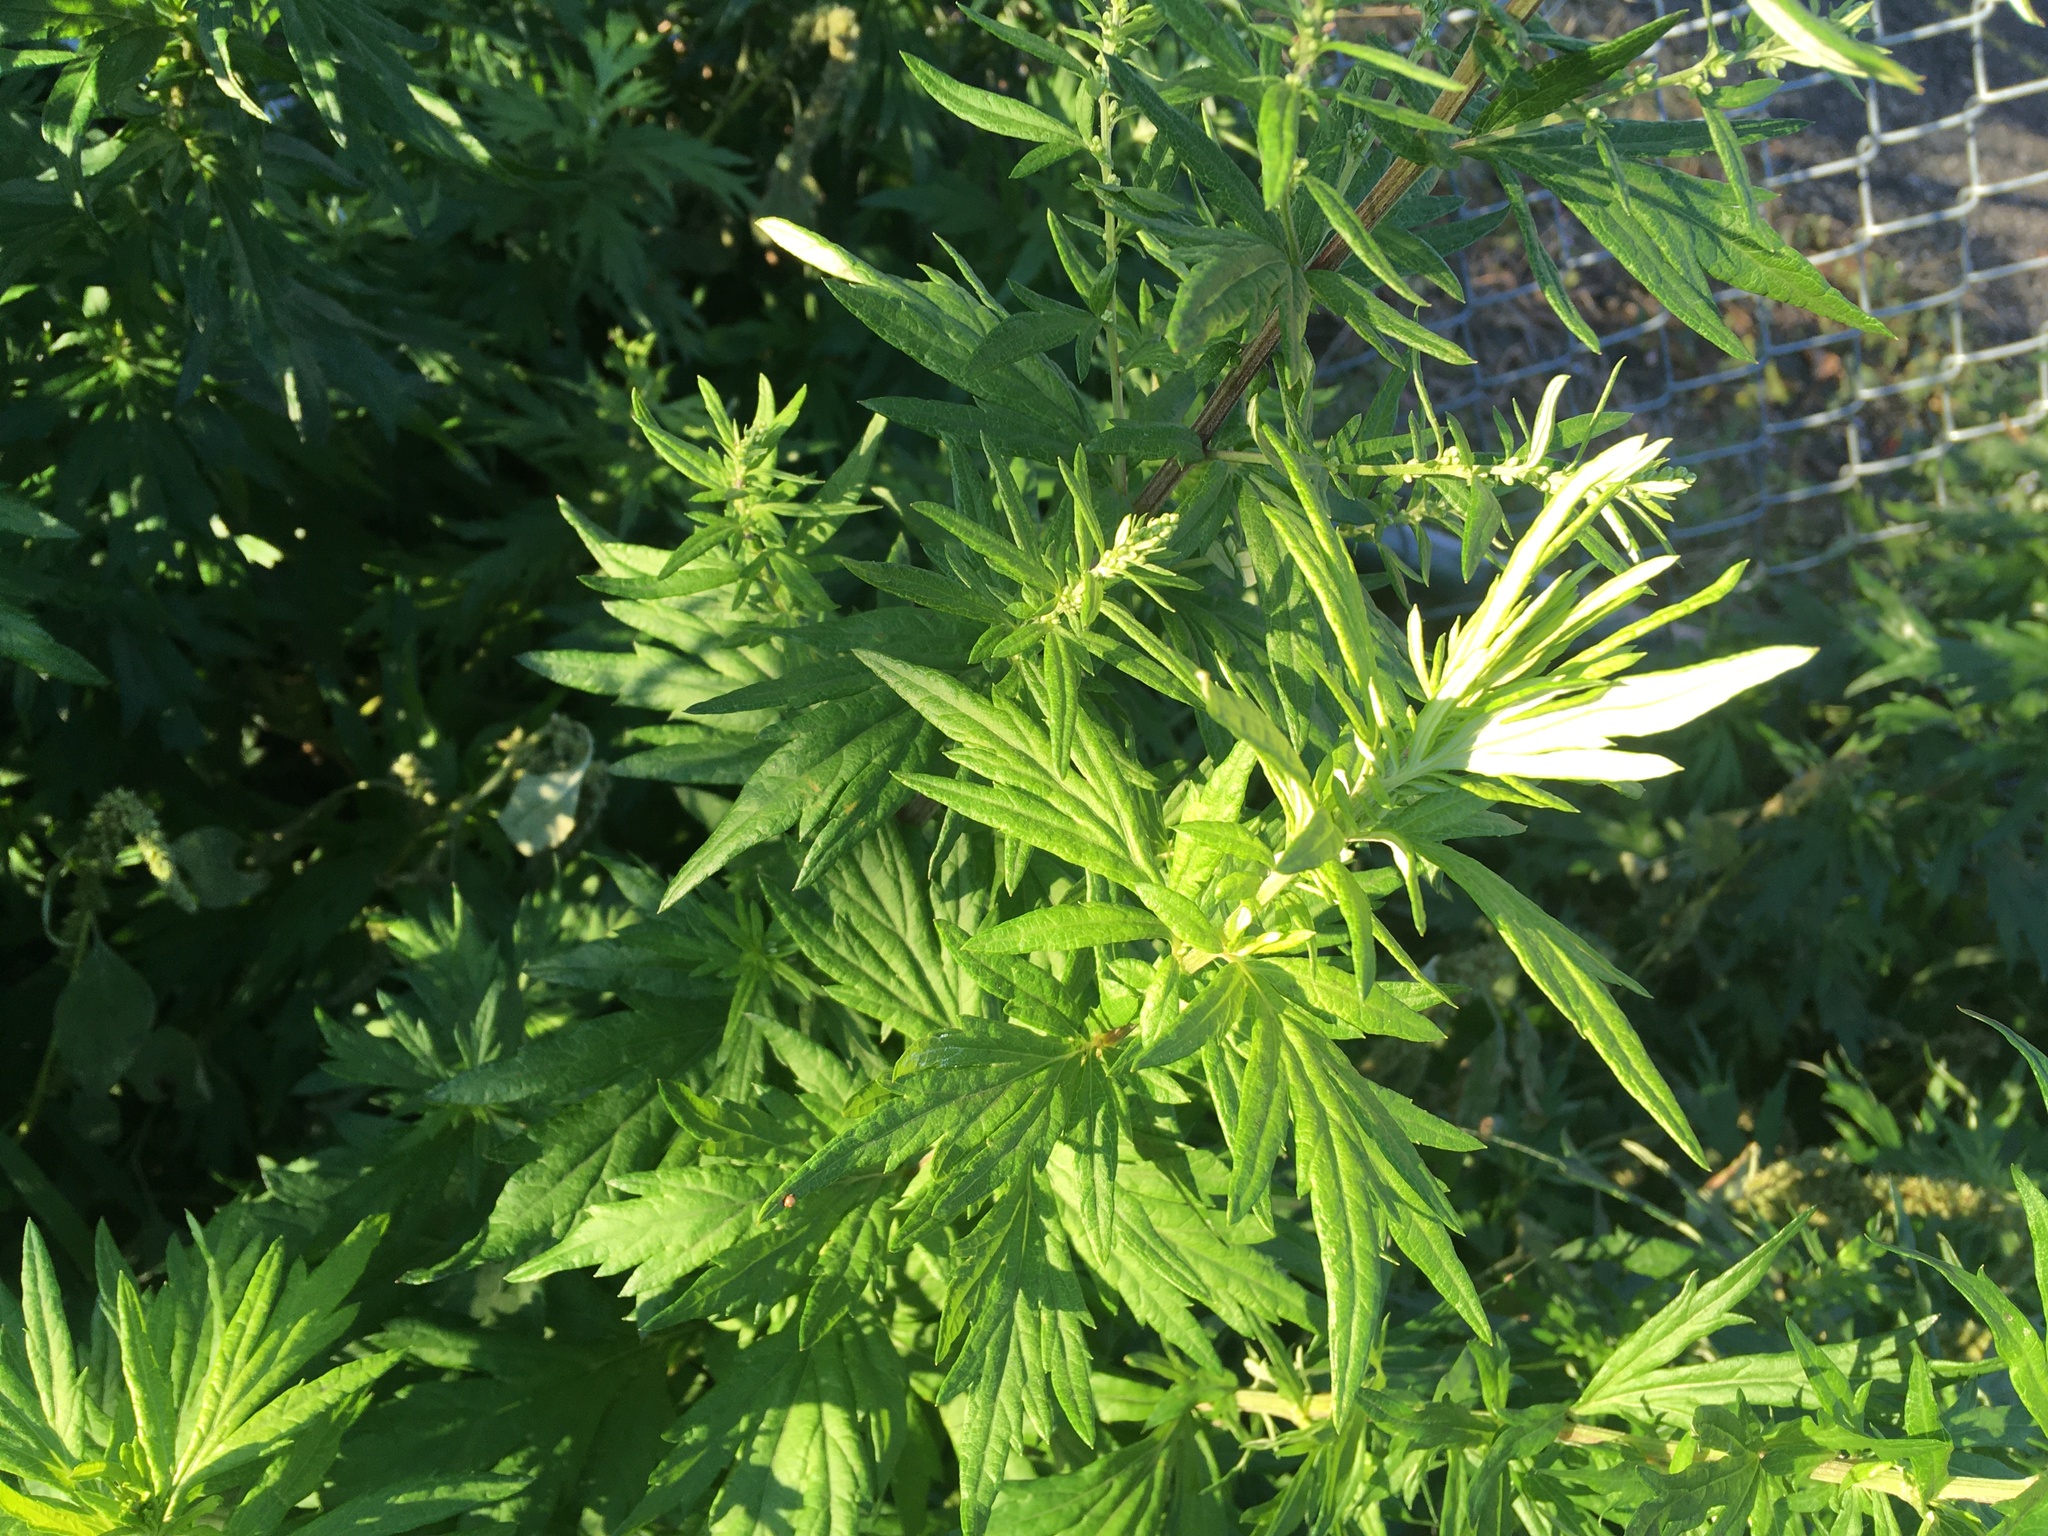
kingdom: Plantae
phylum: Tracheophyta
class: Magnoliopsida
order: Asterales
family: Asteraceae
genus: Artemisia
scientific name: Artemisia vulgaris
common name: Mugwort
